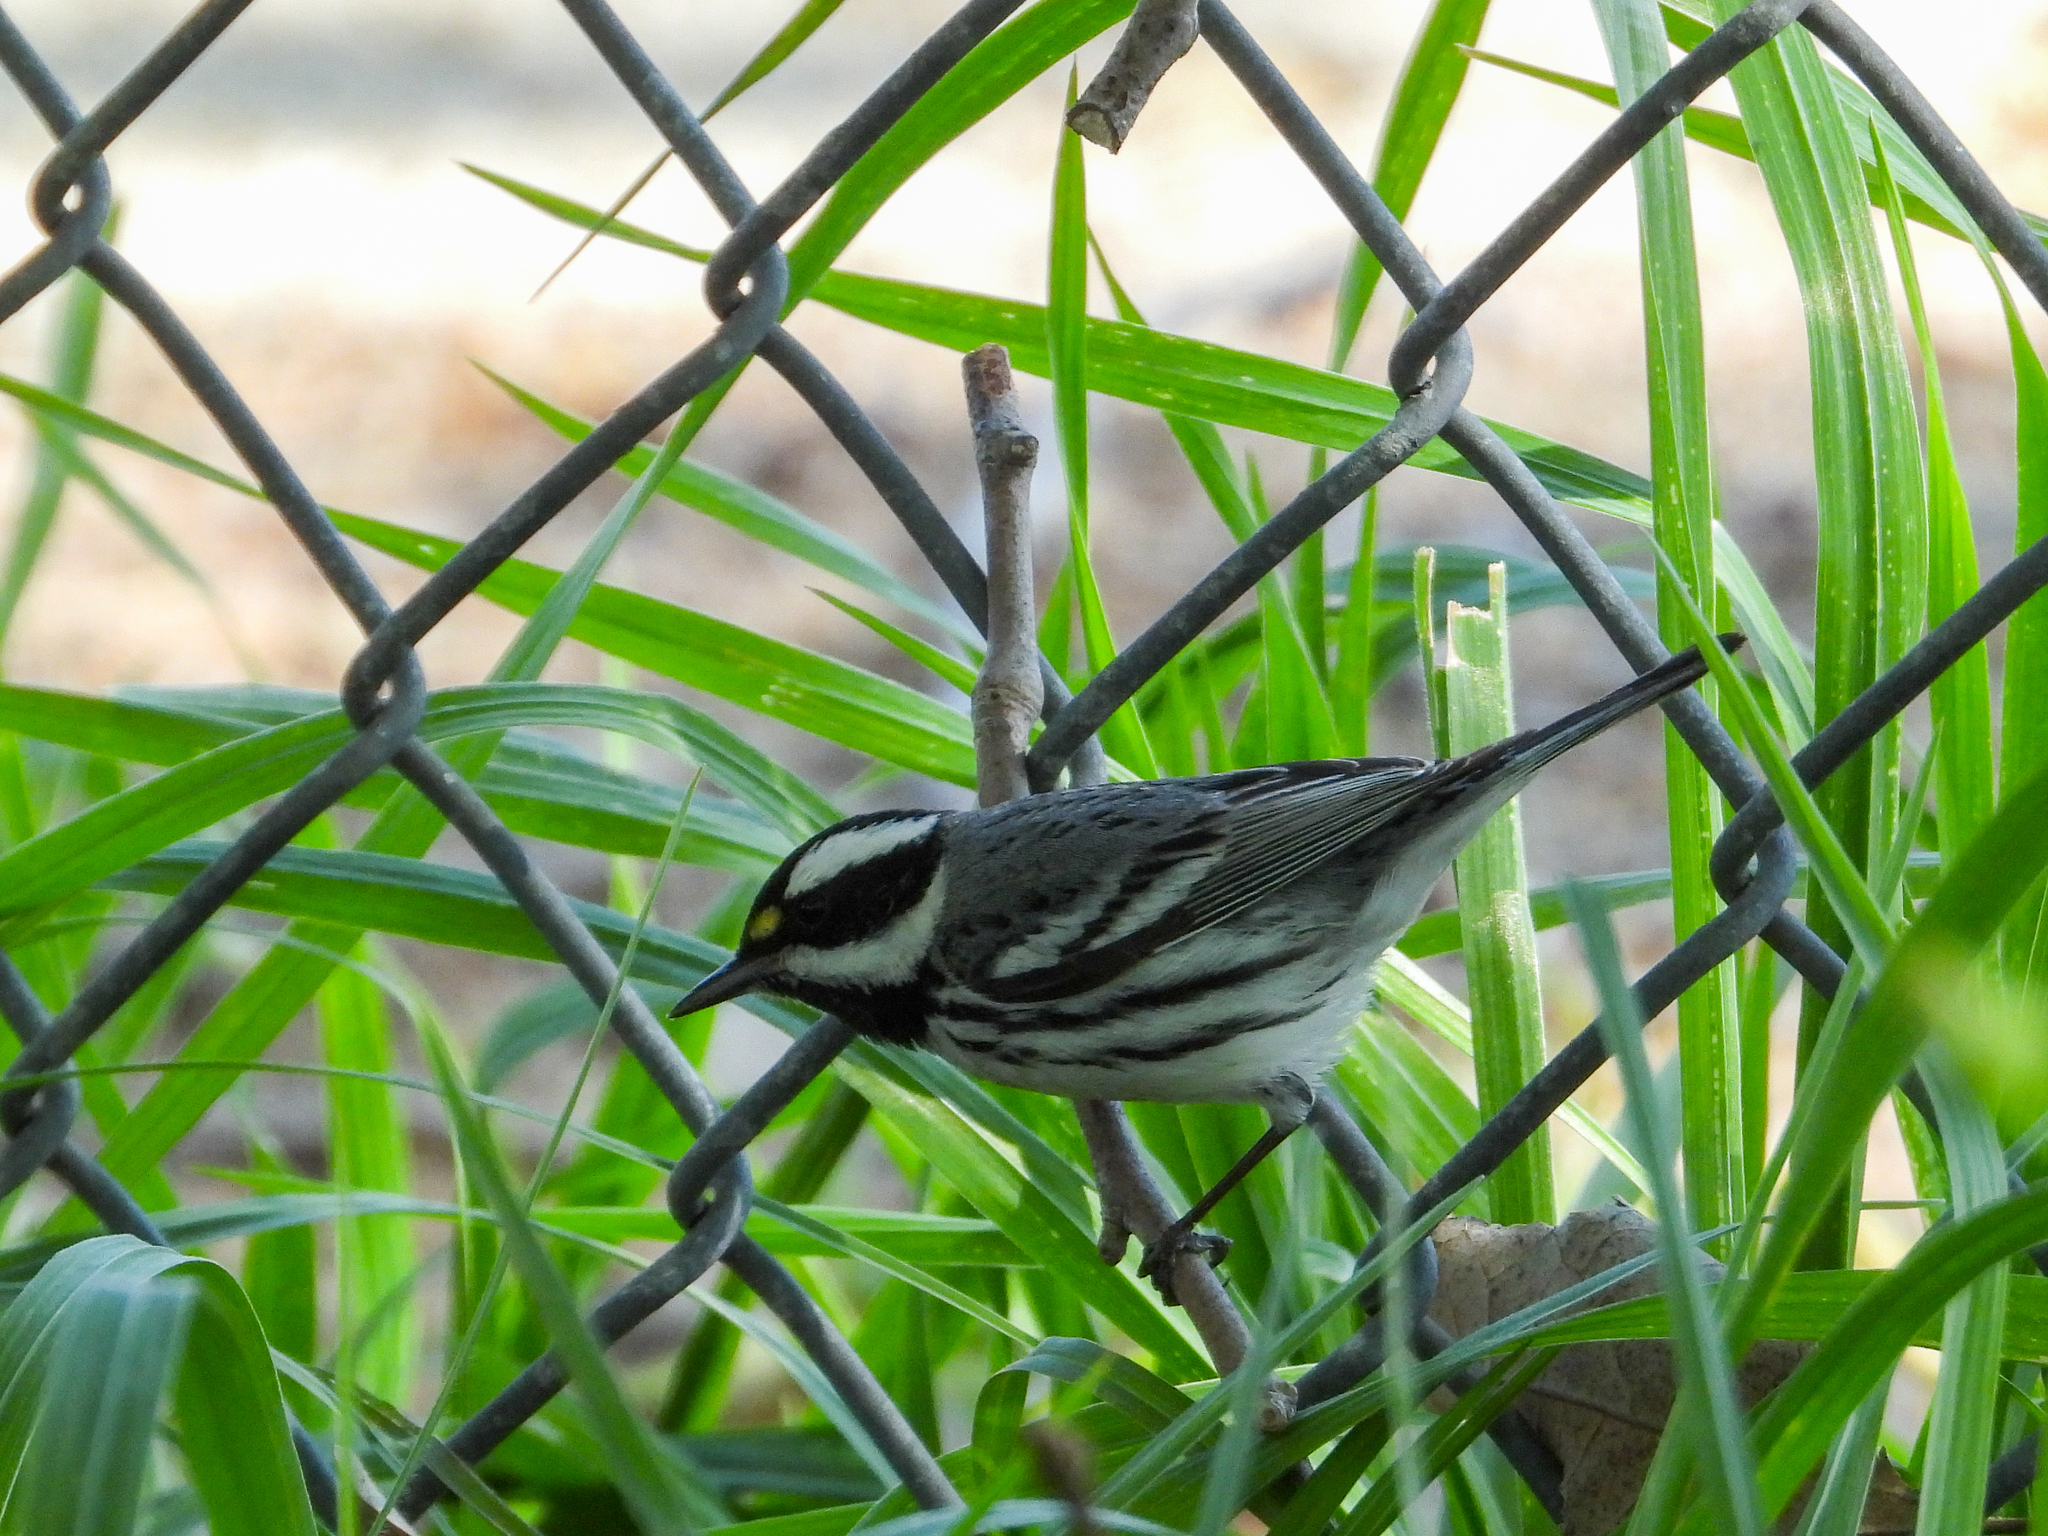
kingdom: Animalia
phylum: Chordata
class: Aves
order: Passeriformes
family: Parulidae
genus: Setophaga
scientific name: Setophaga nigrescens
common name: Black-throated gray warbler
